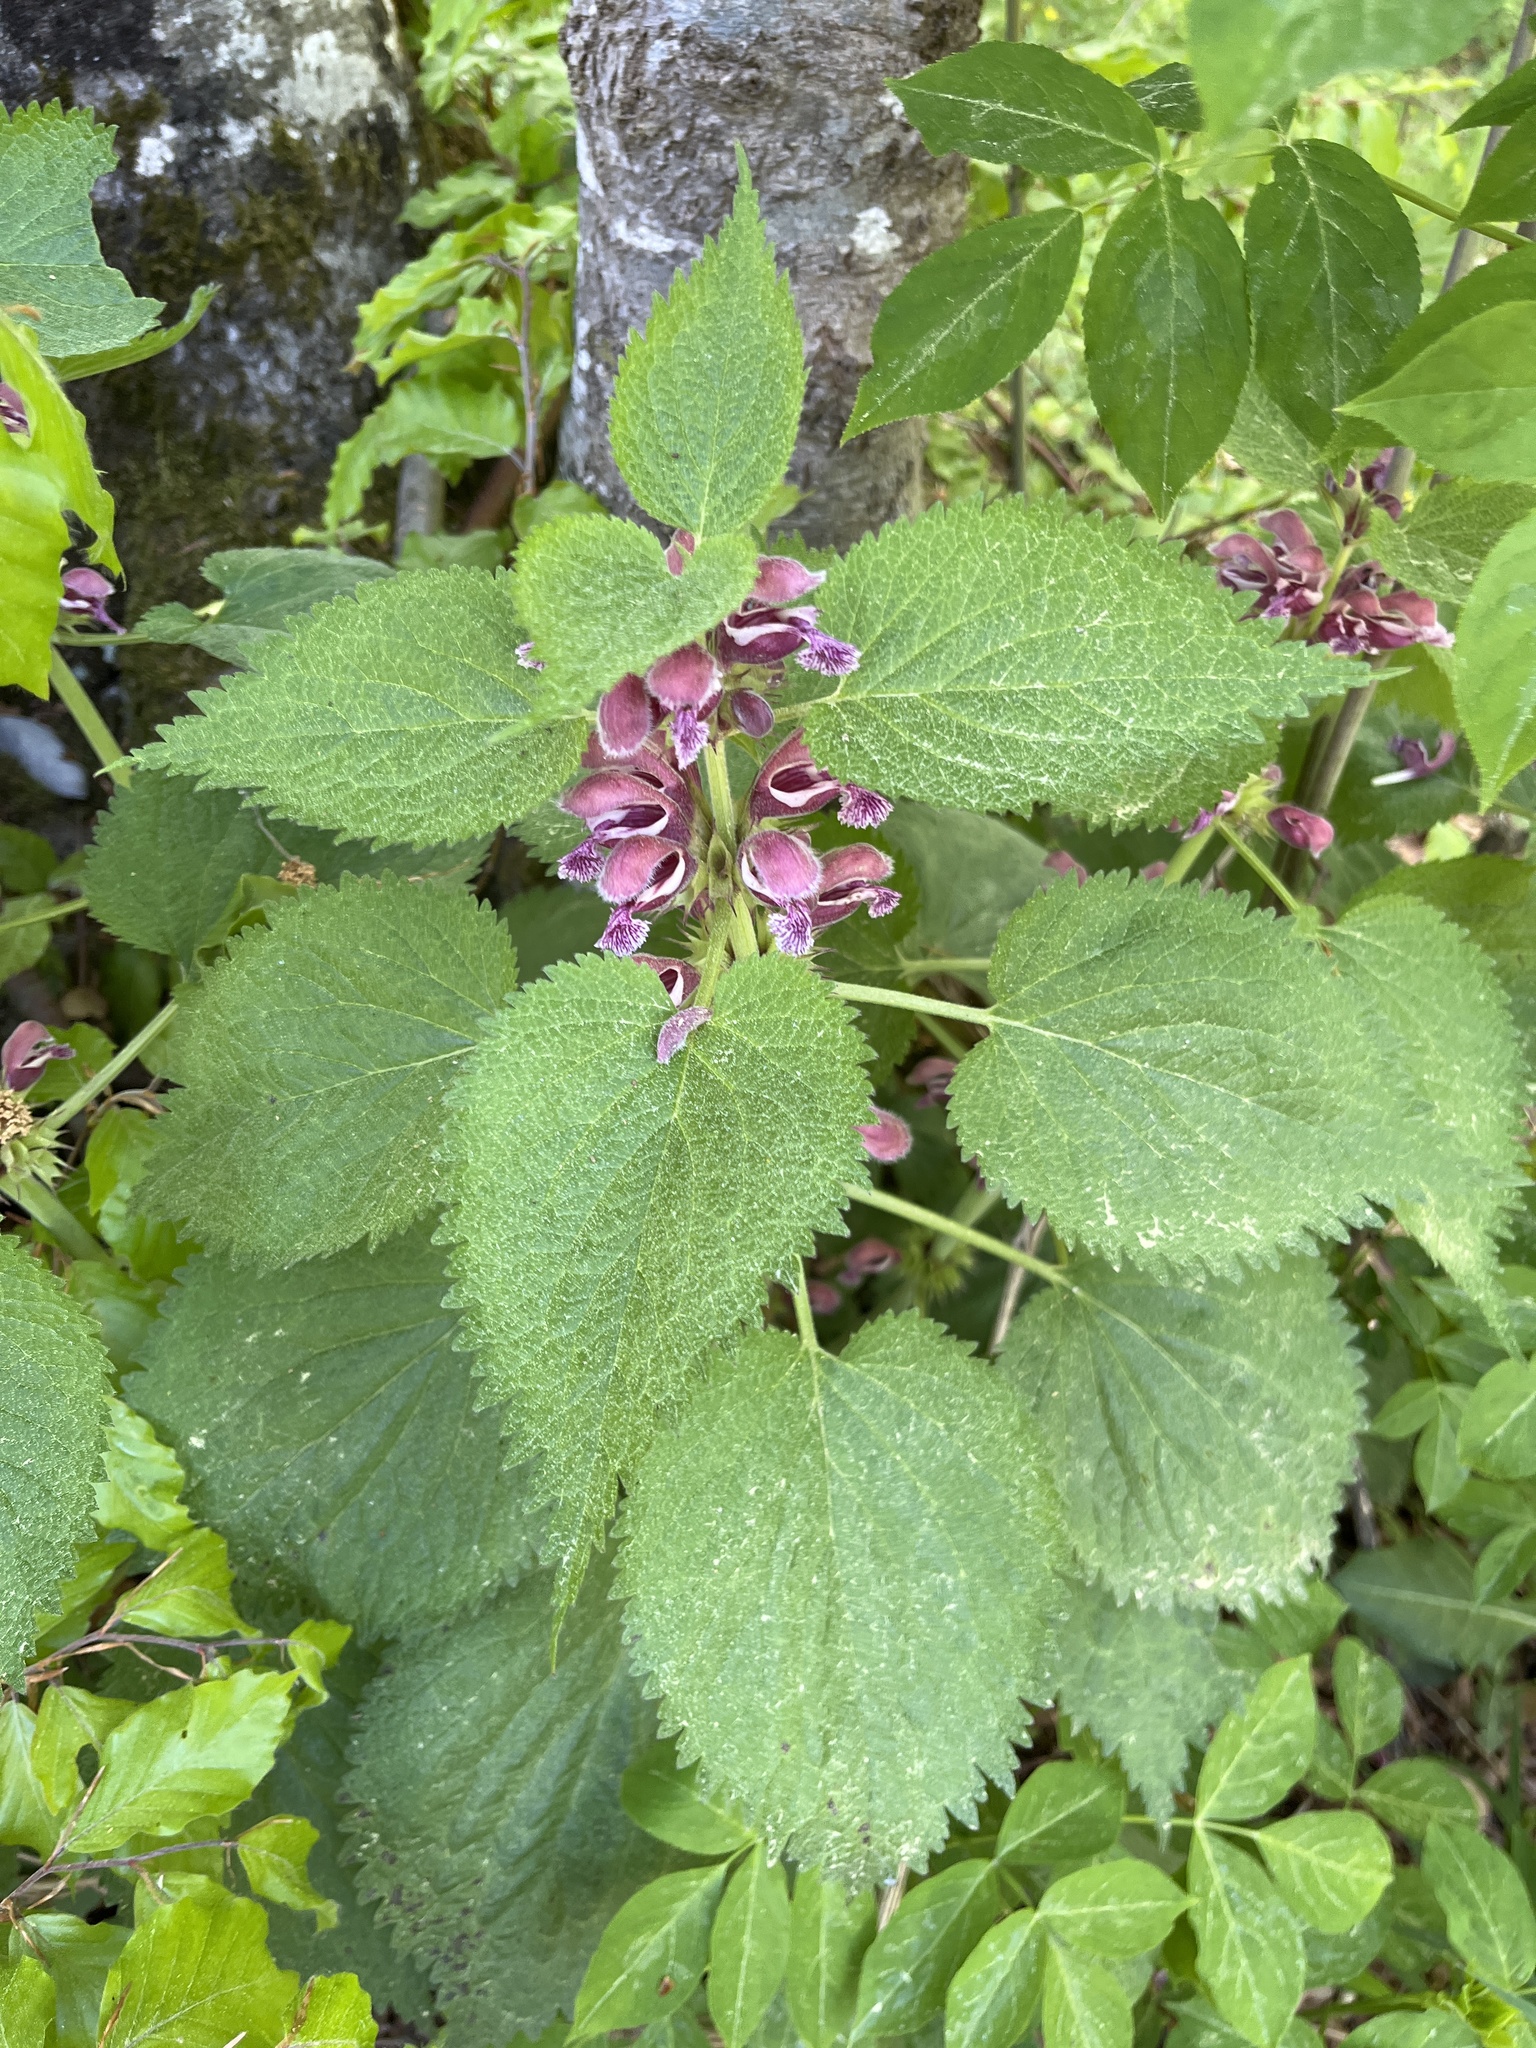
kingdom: Plantae
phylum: Tracheophyta
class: Magnoliopsida
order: Lamiales
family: Lamiaceae
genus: Lamium
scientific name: Lamium orvala
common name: Balm-leaved archangel
